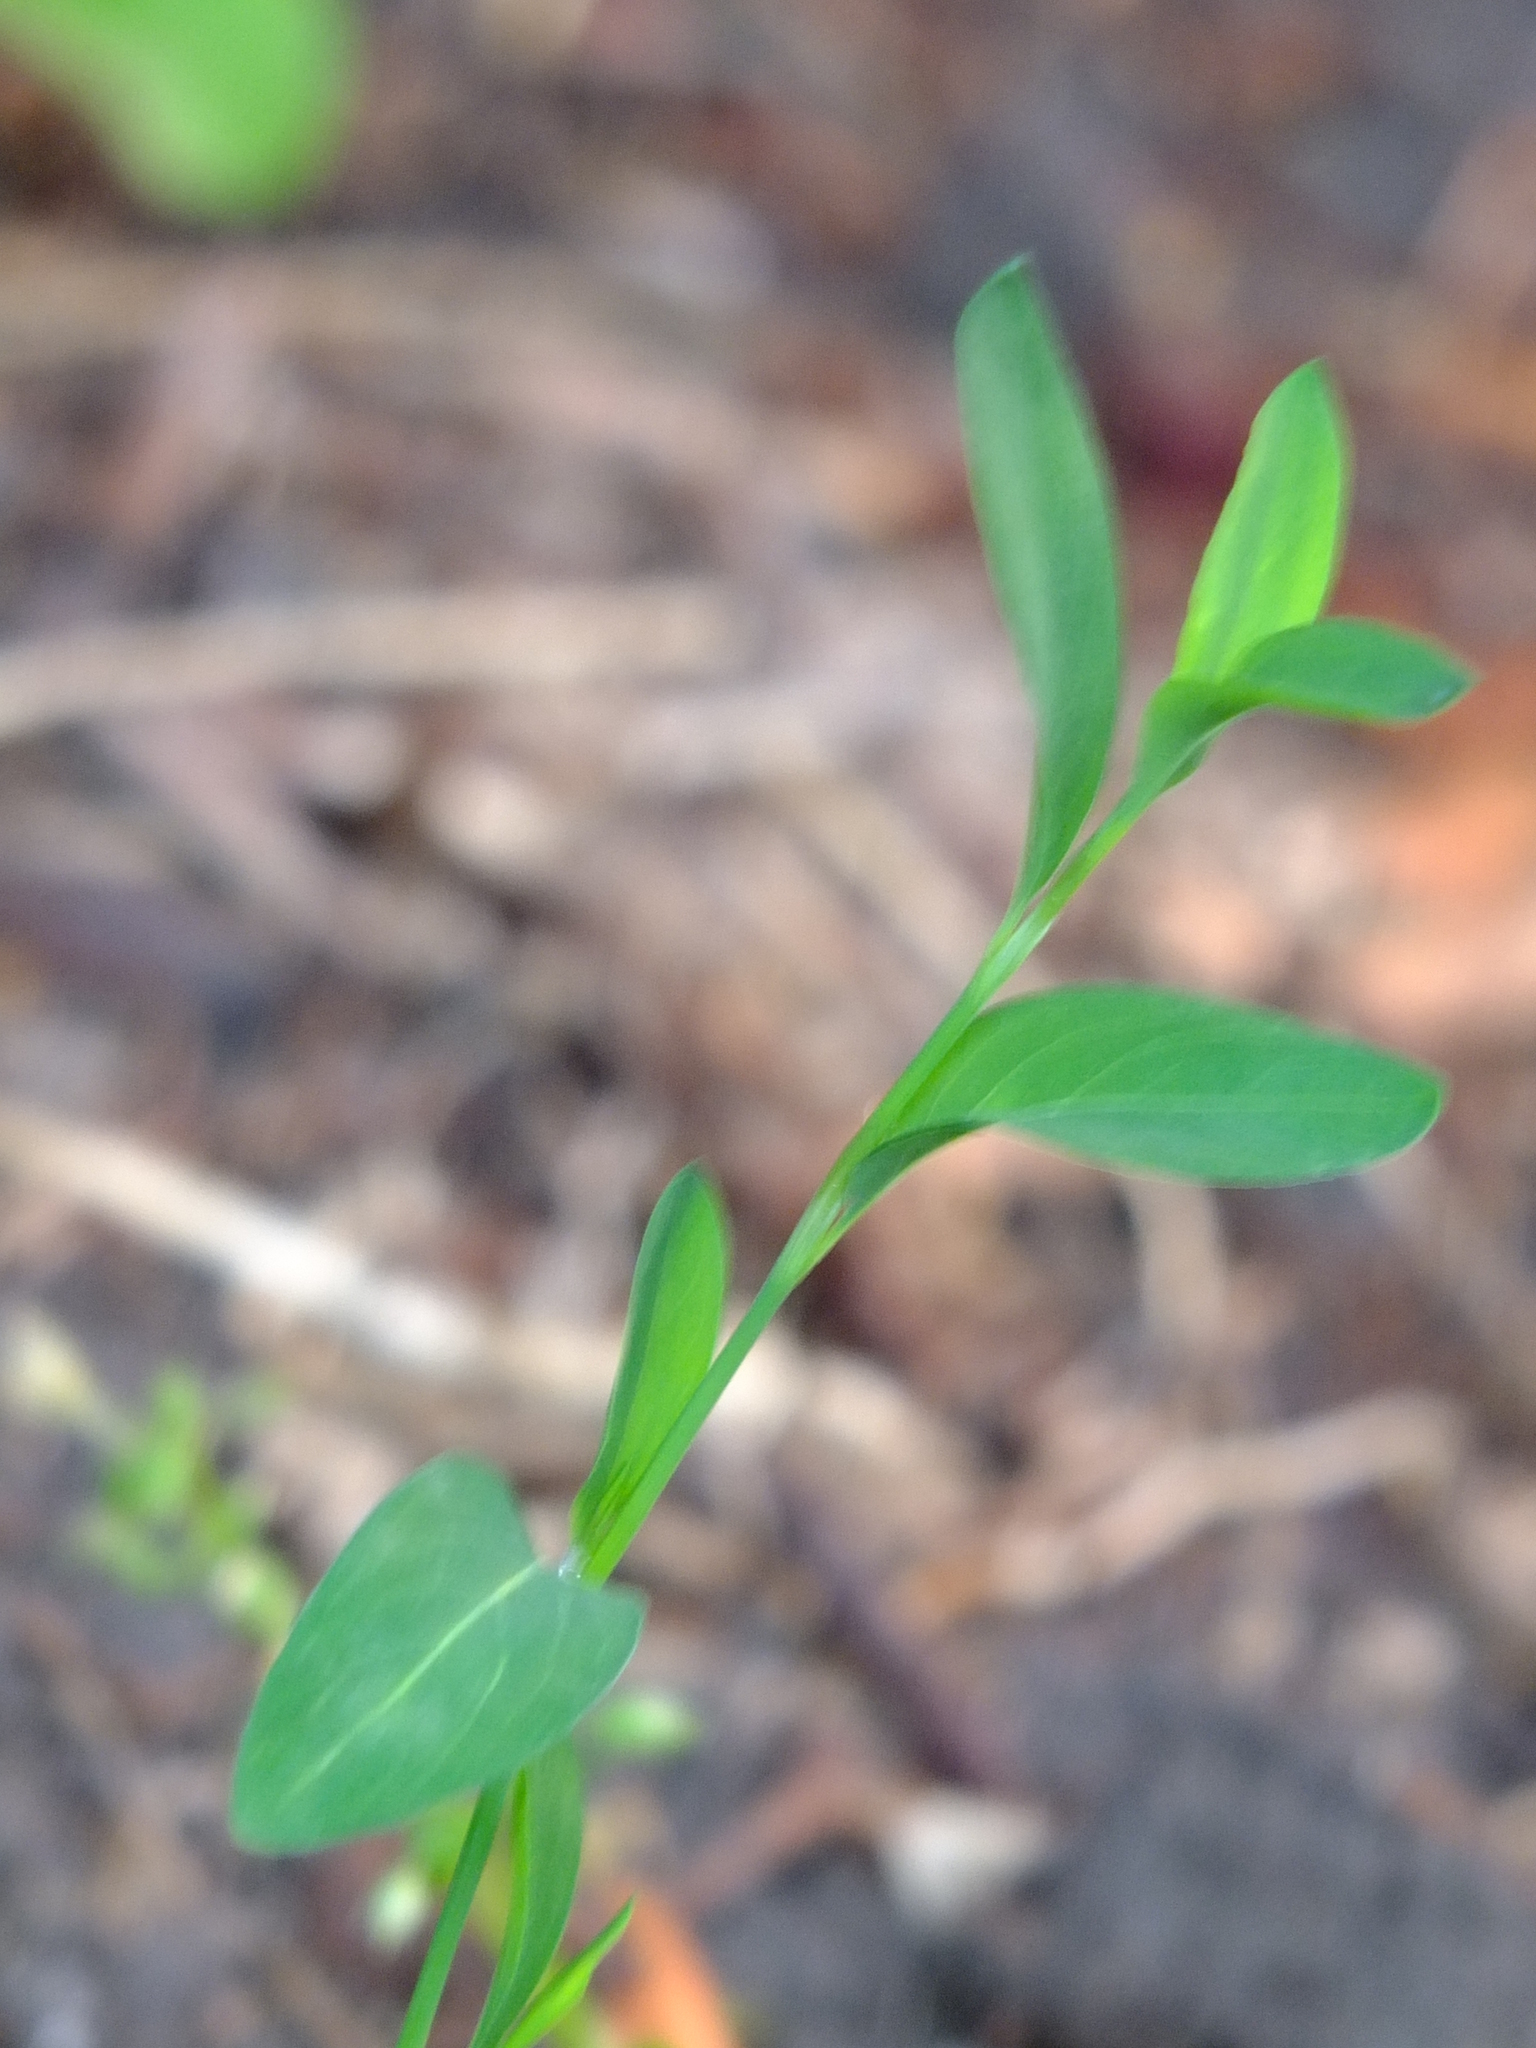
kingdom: Plantae
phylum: Tracheophyta
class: Magnoliopsida
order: Caryophyllales
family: Polygonaceae
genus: Polygonum
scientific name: Polygonum
